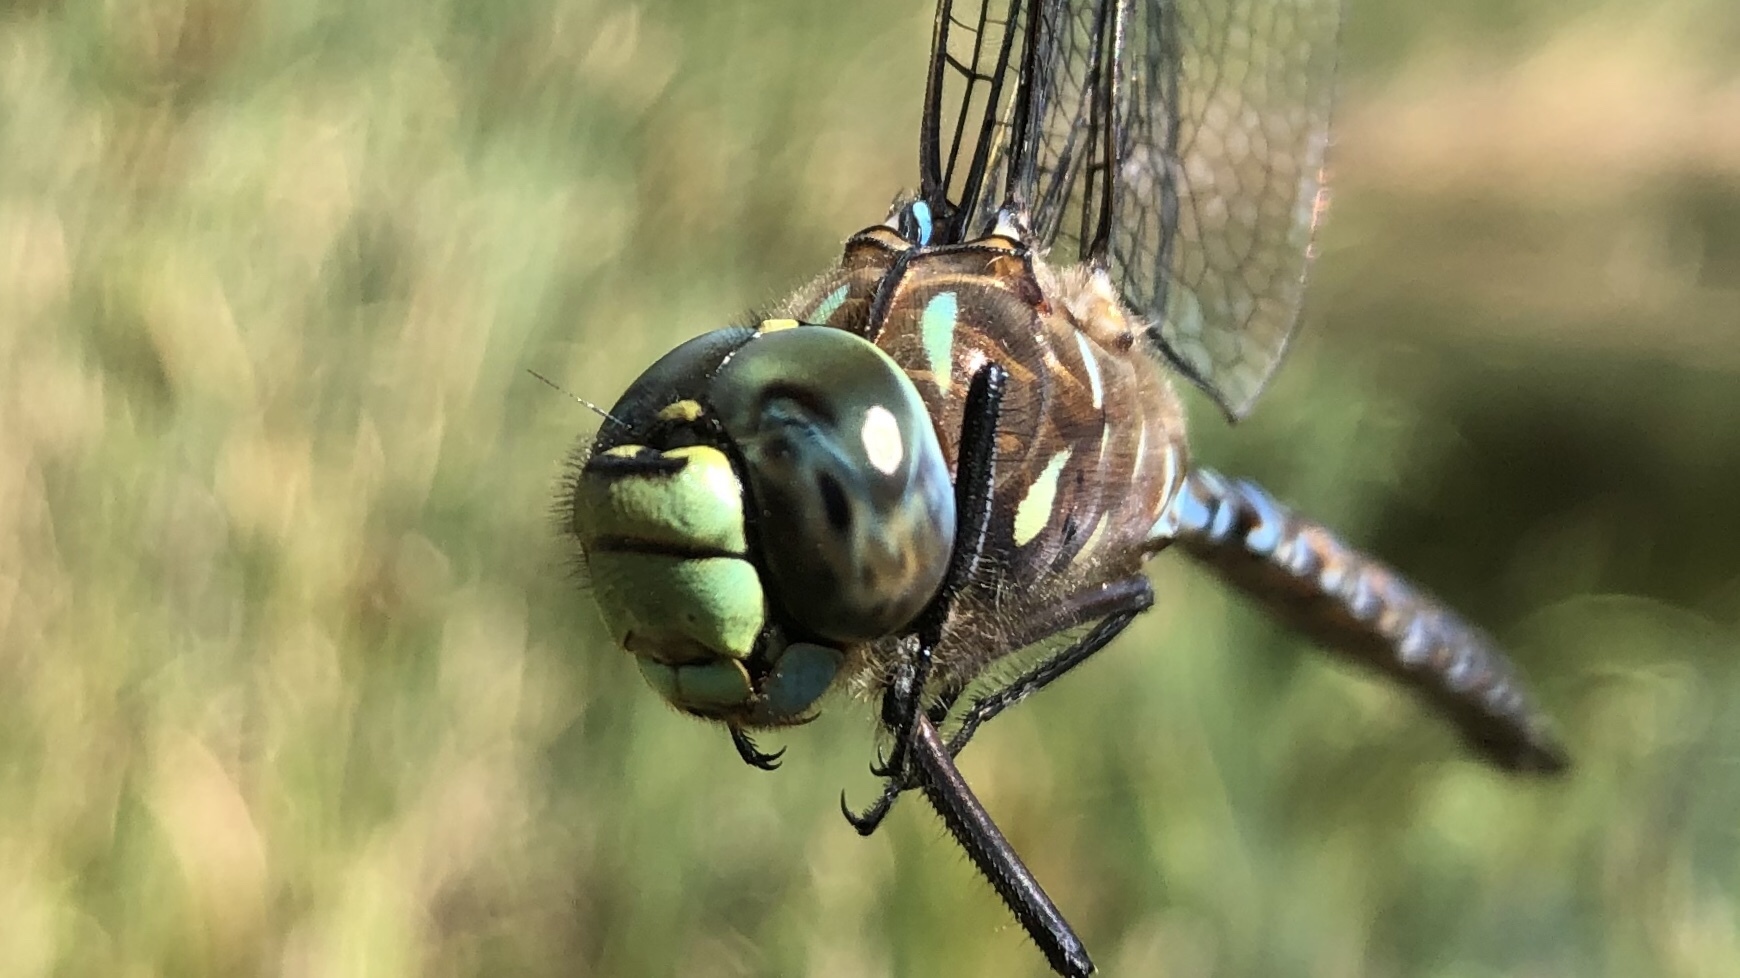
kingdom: Animalia
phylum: Arthropoda
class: Insecta
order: Odonata
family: Aeshnidae
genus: Aeshna
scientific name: Aeshna interrupta
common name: Variable darner
